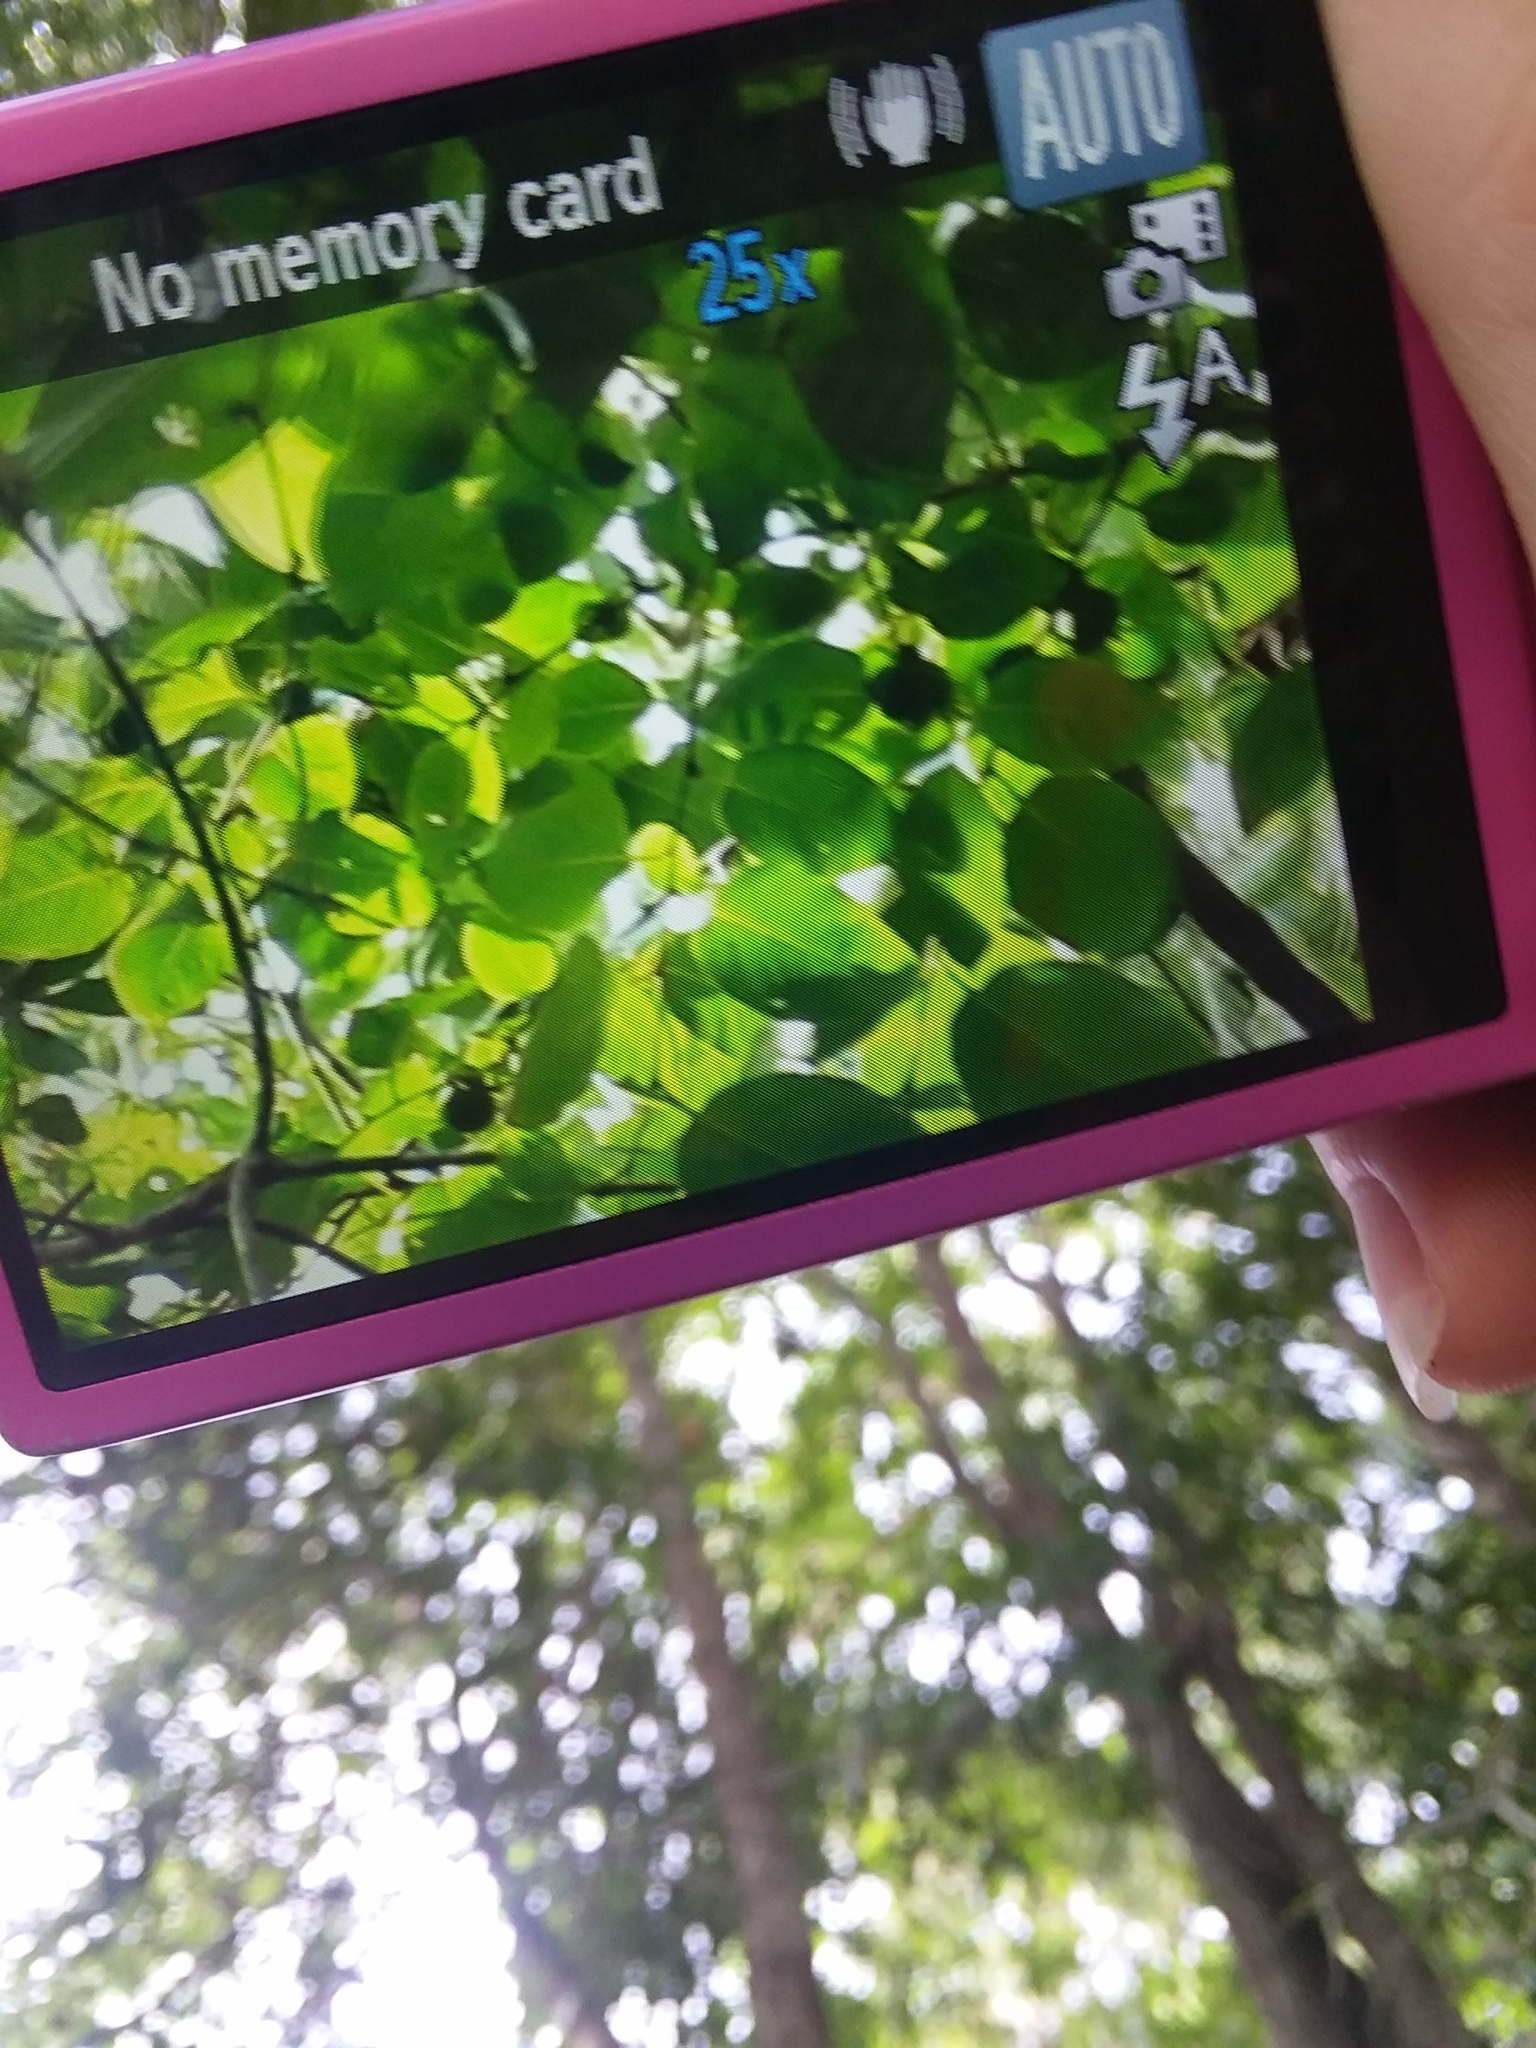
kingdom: Plantae
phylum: Tracheophyta
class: Magnoliopsida
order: Ericales
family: Ebenaceae
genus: Diospyros
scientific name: Diospyros virginiana
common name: Persimmon
